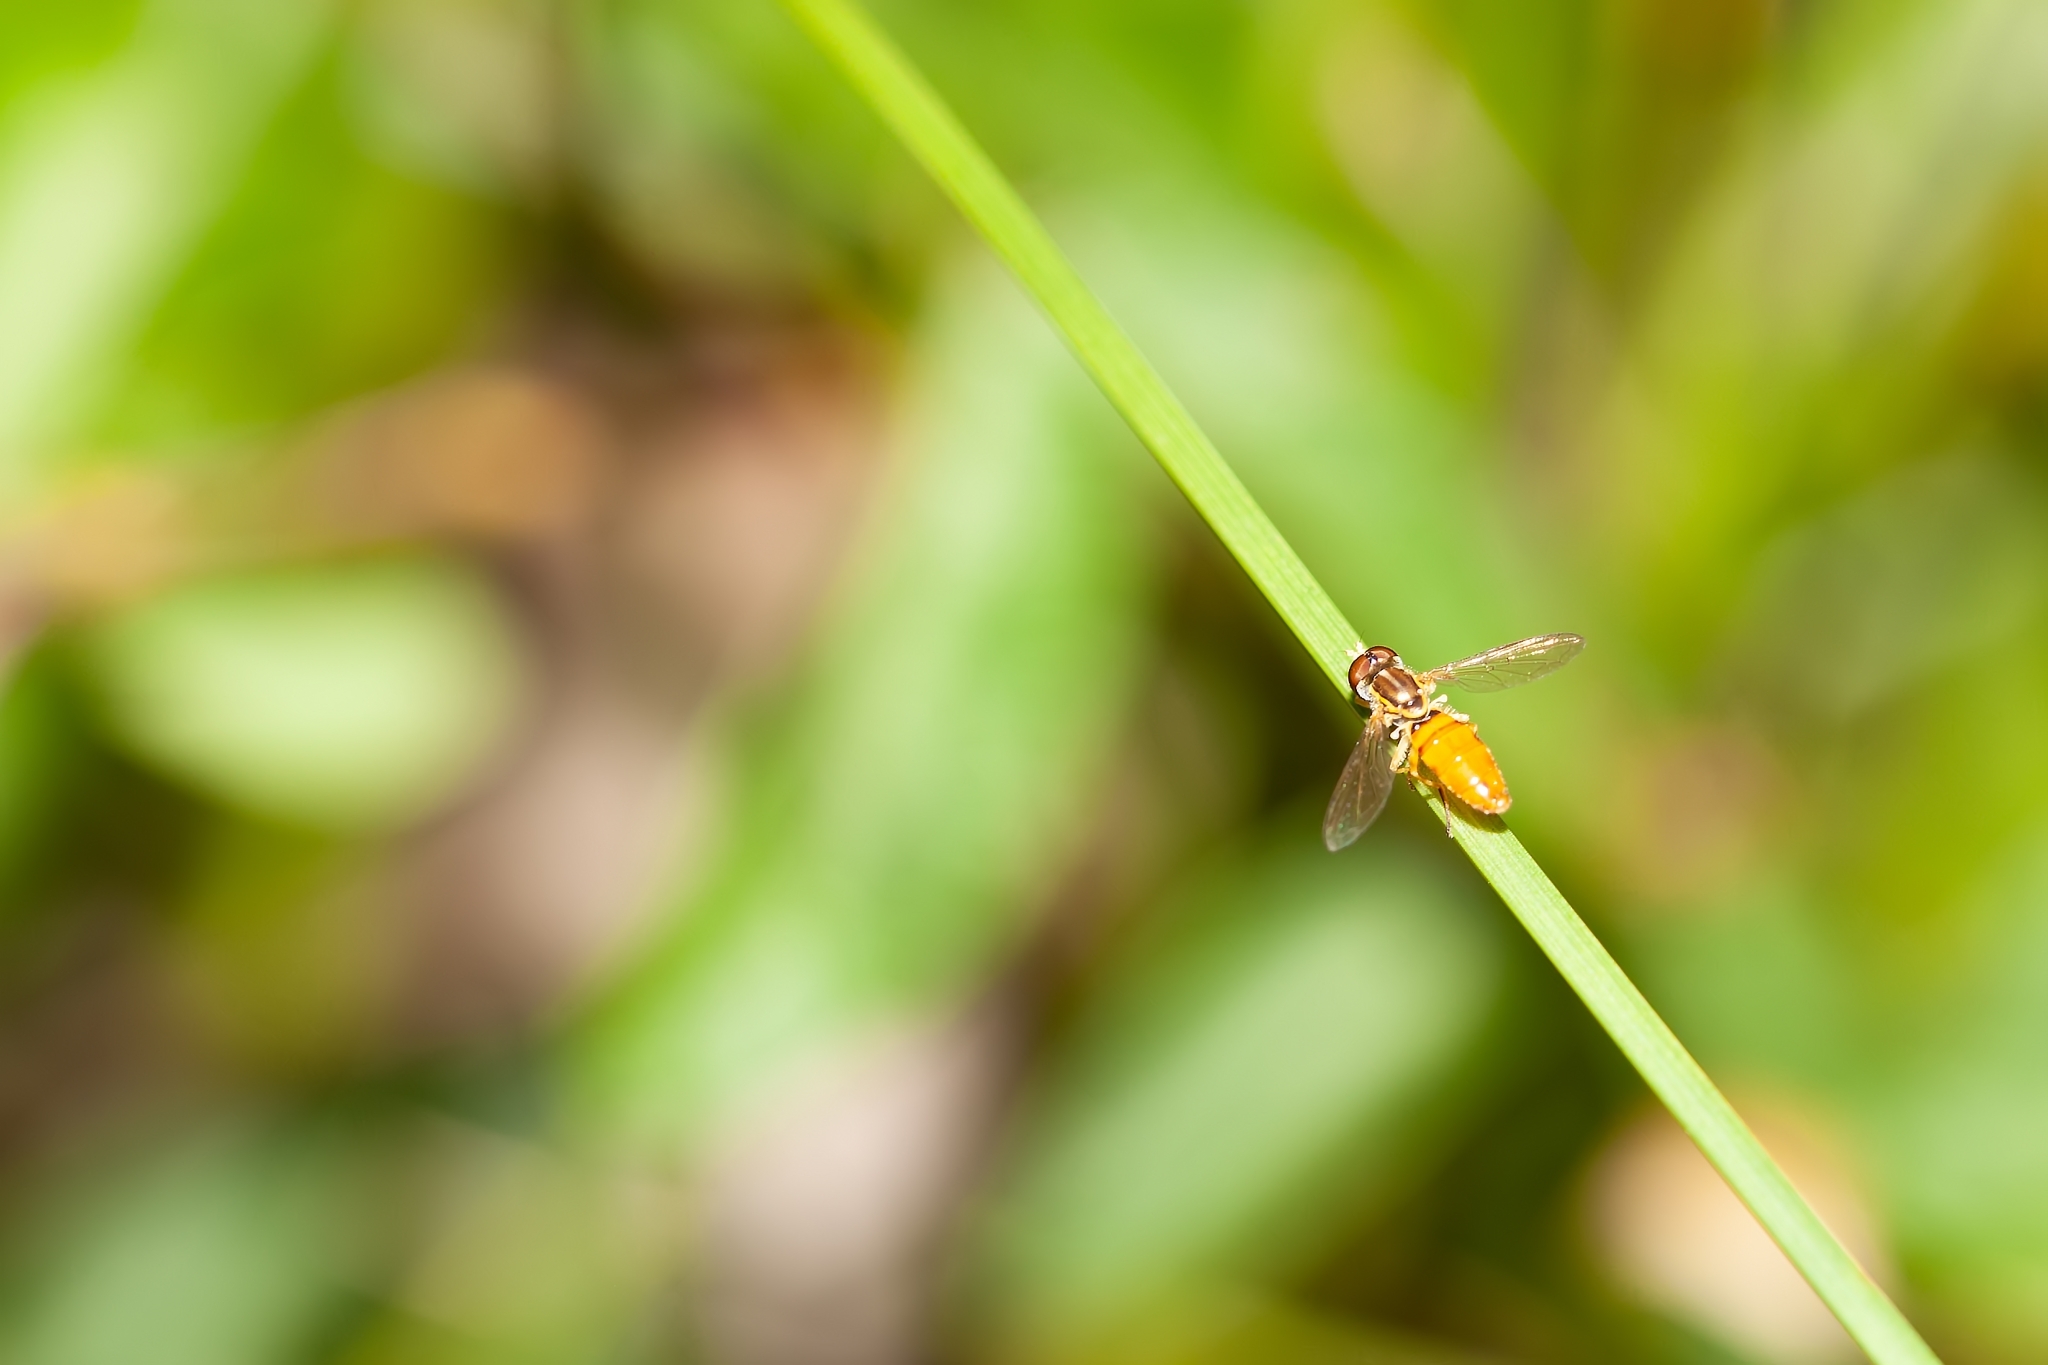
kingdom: Animalia
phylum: Arthropoda
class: Insecta
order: Diptera
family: Syrphidae
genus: Toxomerus
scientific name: Toxomerus floralis
